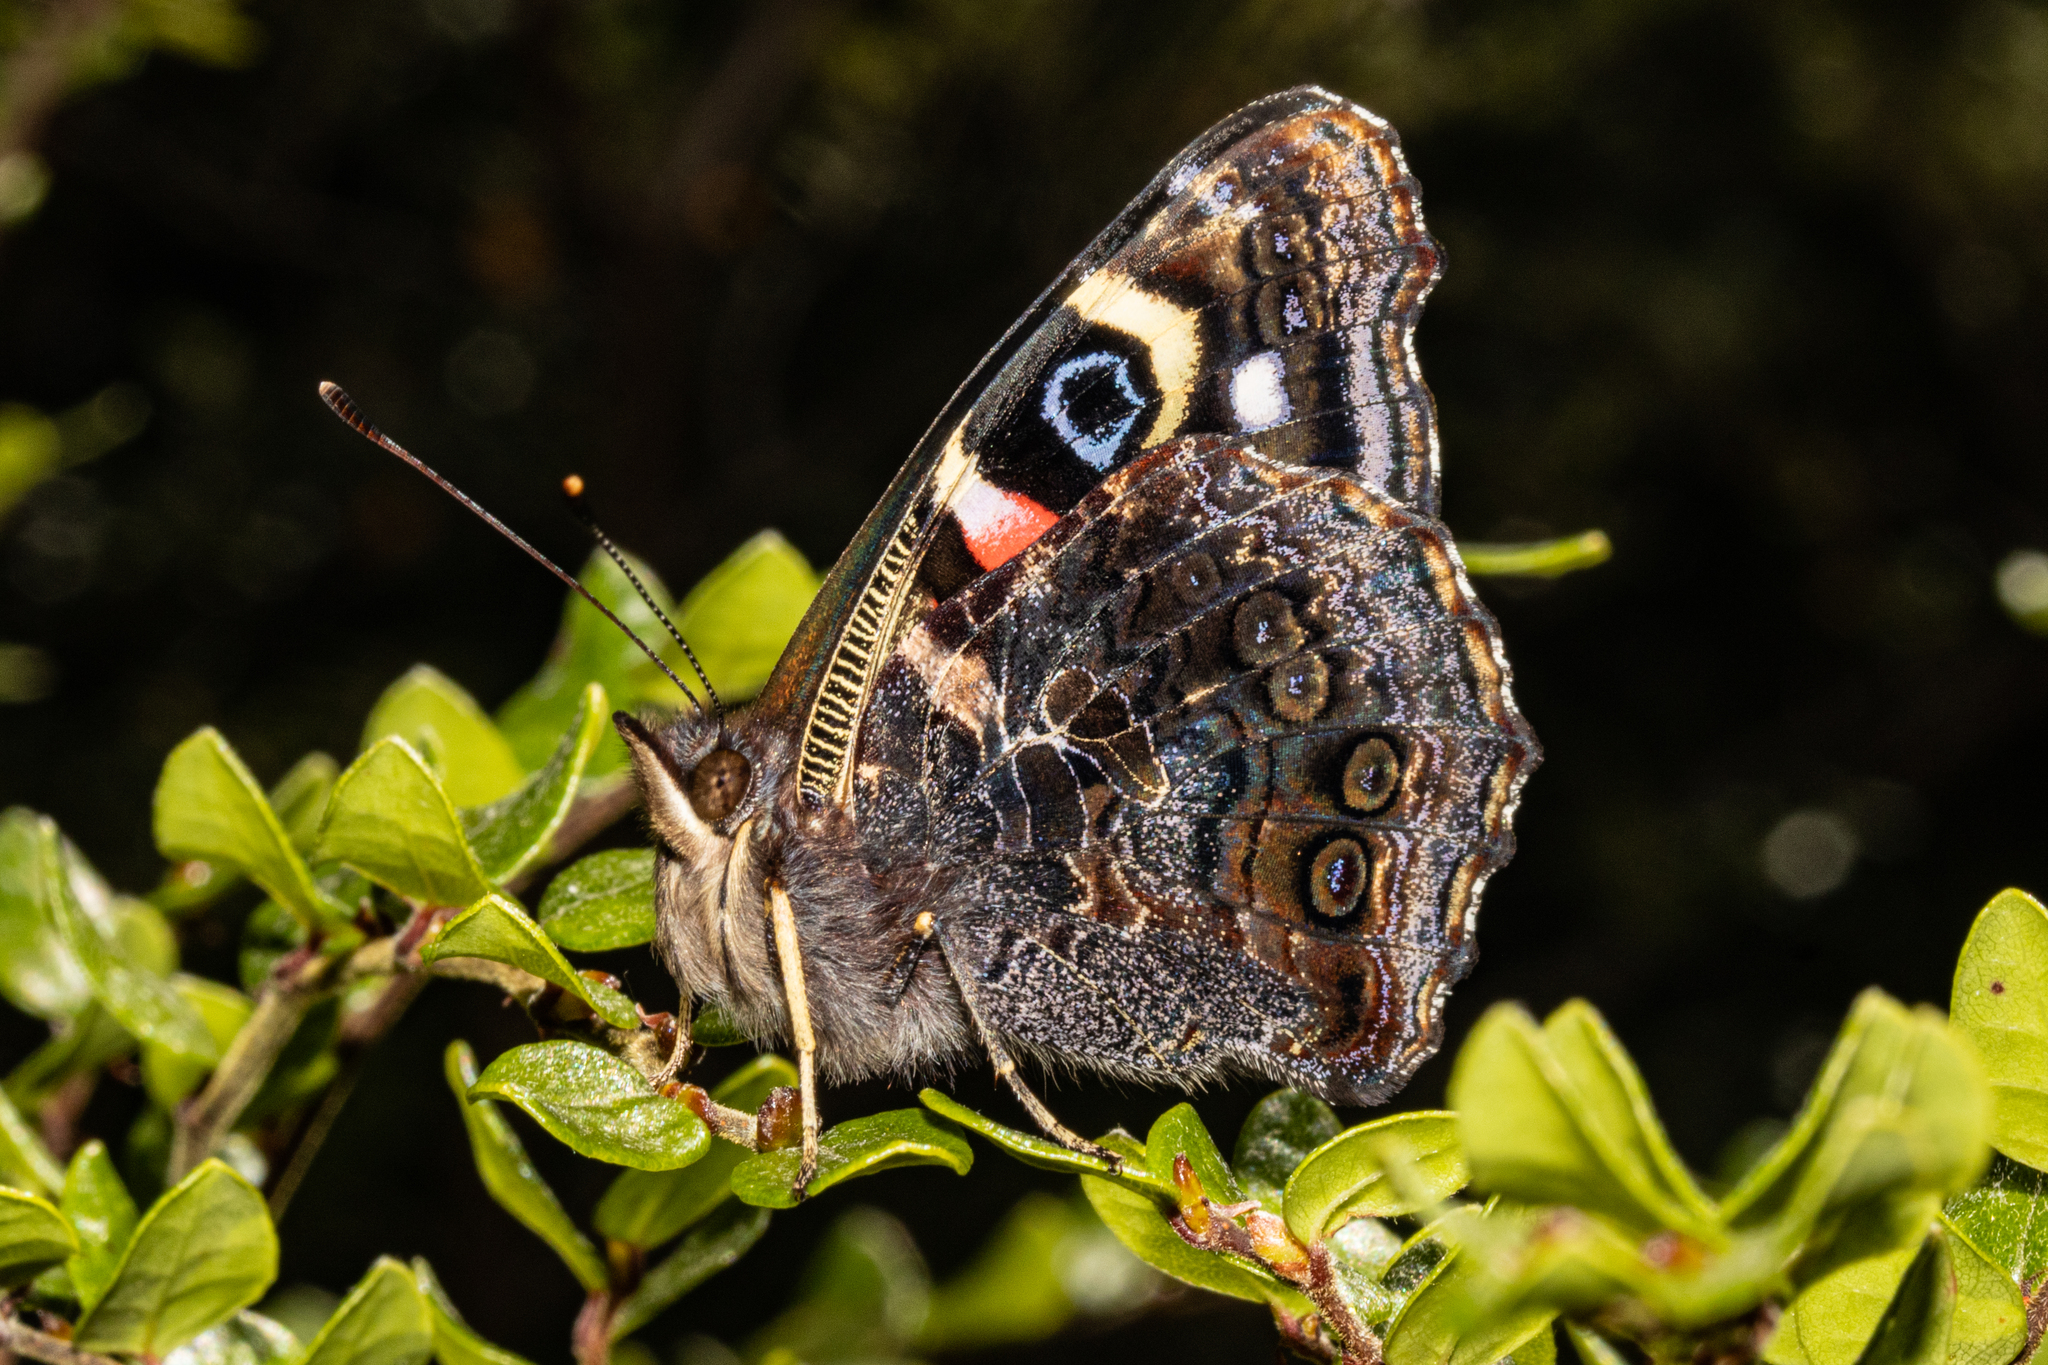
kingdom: Animalia
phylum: Arthropoda
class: Insecta
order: Lepidoptera
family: Nymphalidae
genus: Vanessa
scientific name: Vanessa gonerilla
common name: New zealand red admiral
